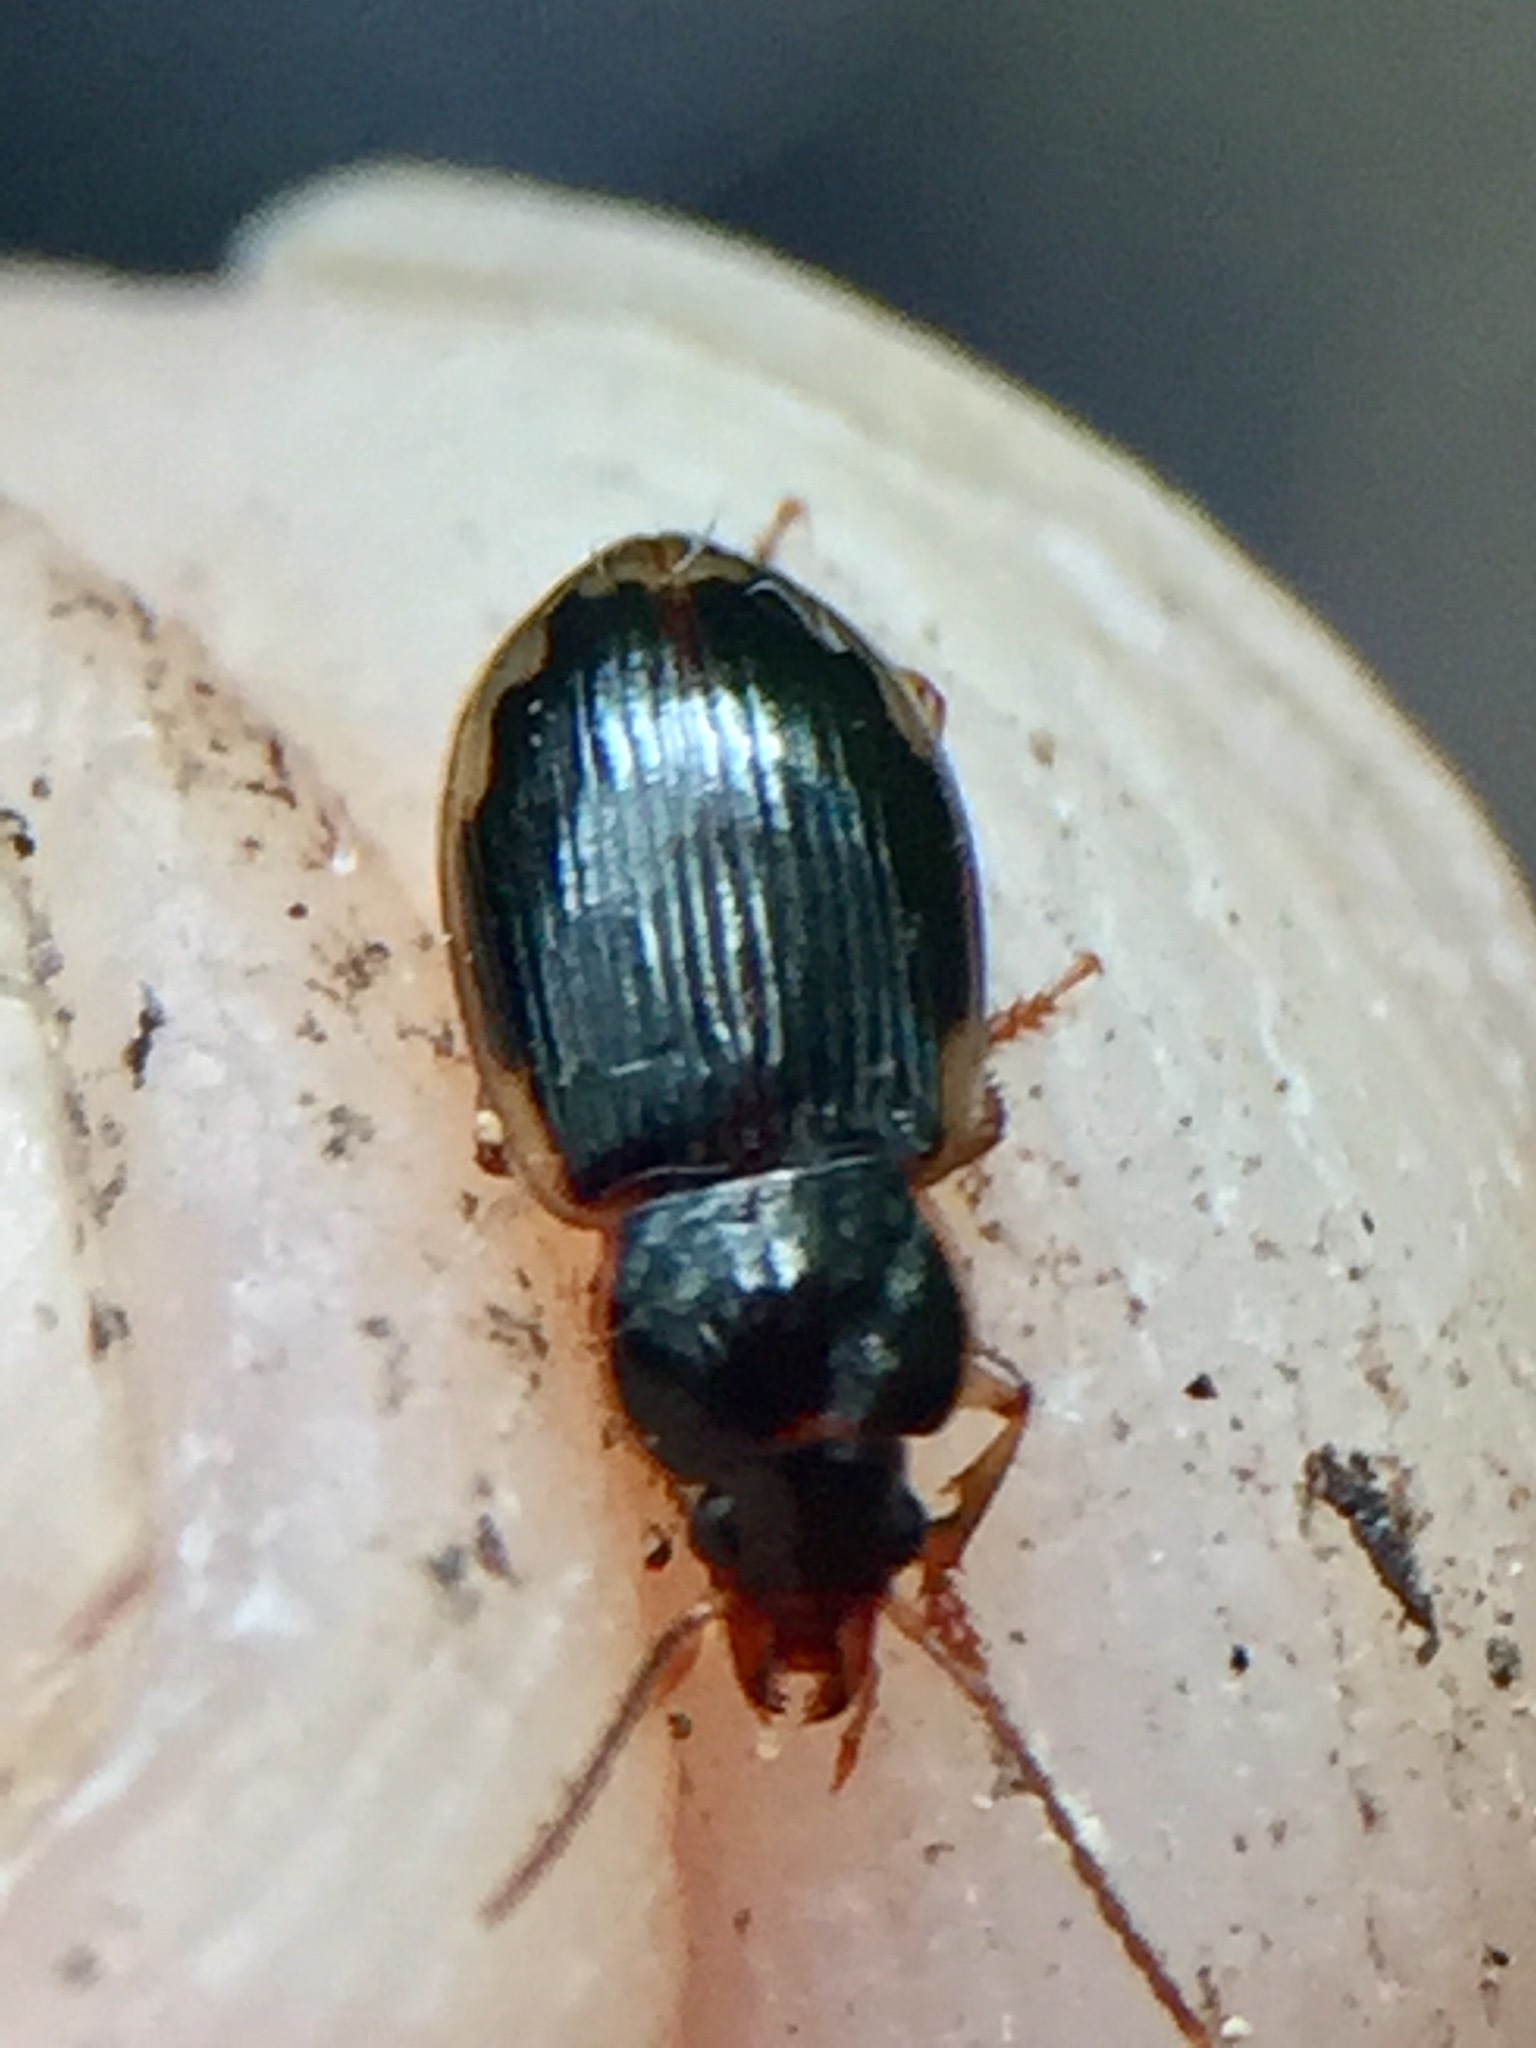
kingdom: Animalia
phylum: Arthropoda
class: Insecta
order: Coleoptera
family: Carabidae
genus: Lecanomerus
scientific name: Lecanomerus sharpi
